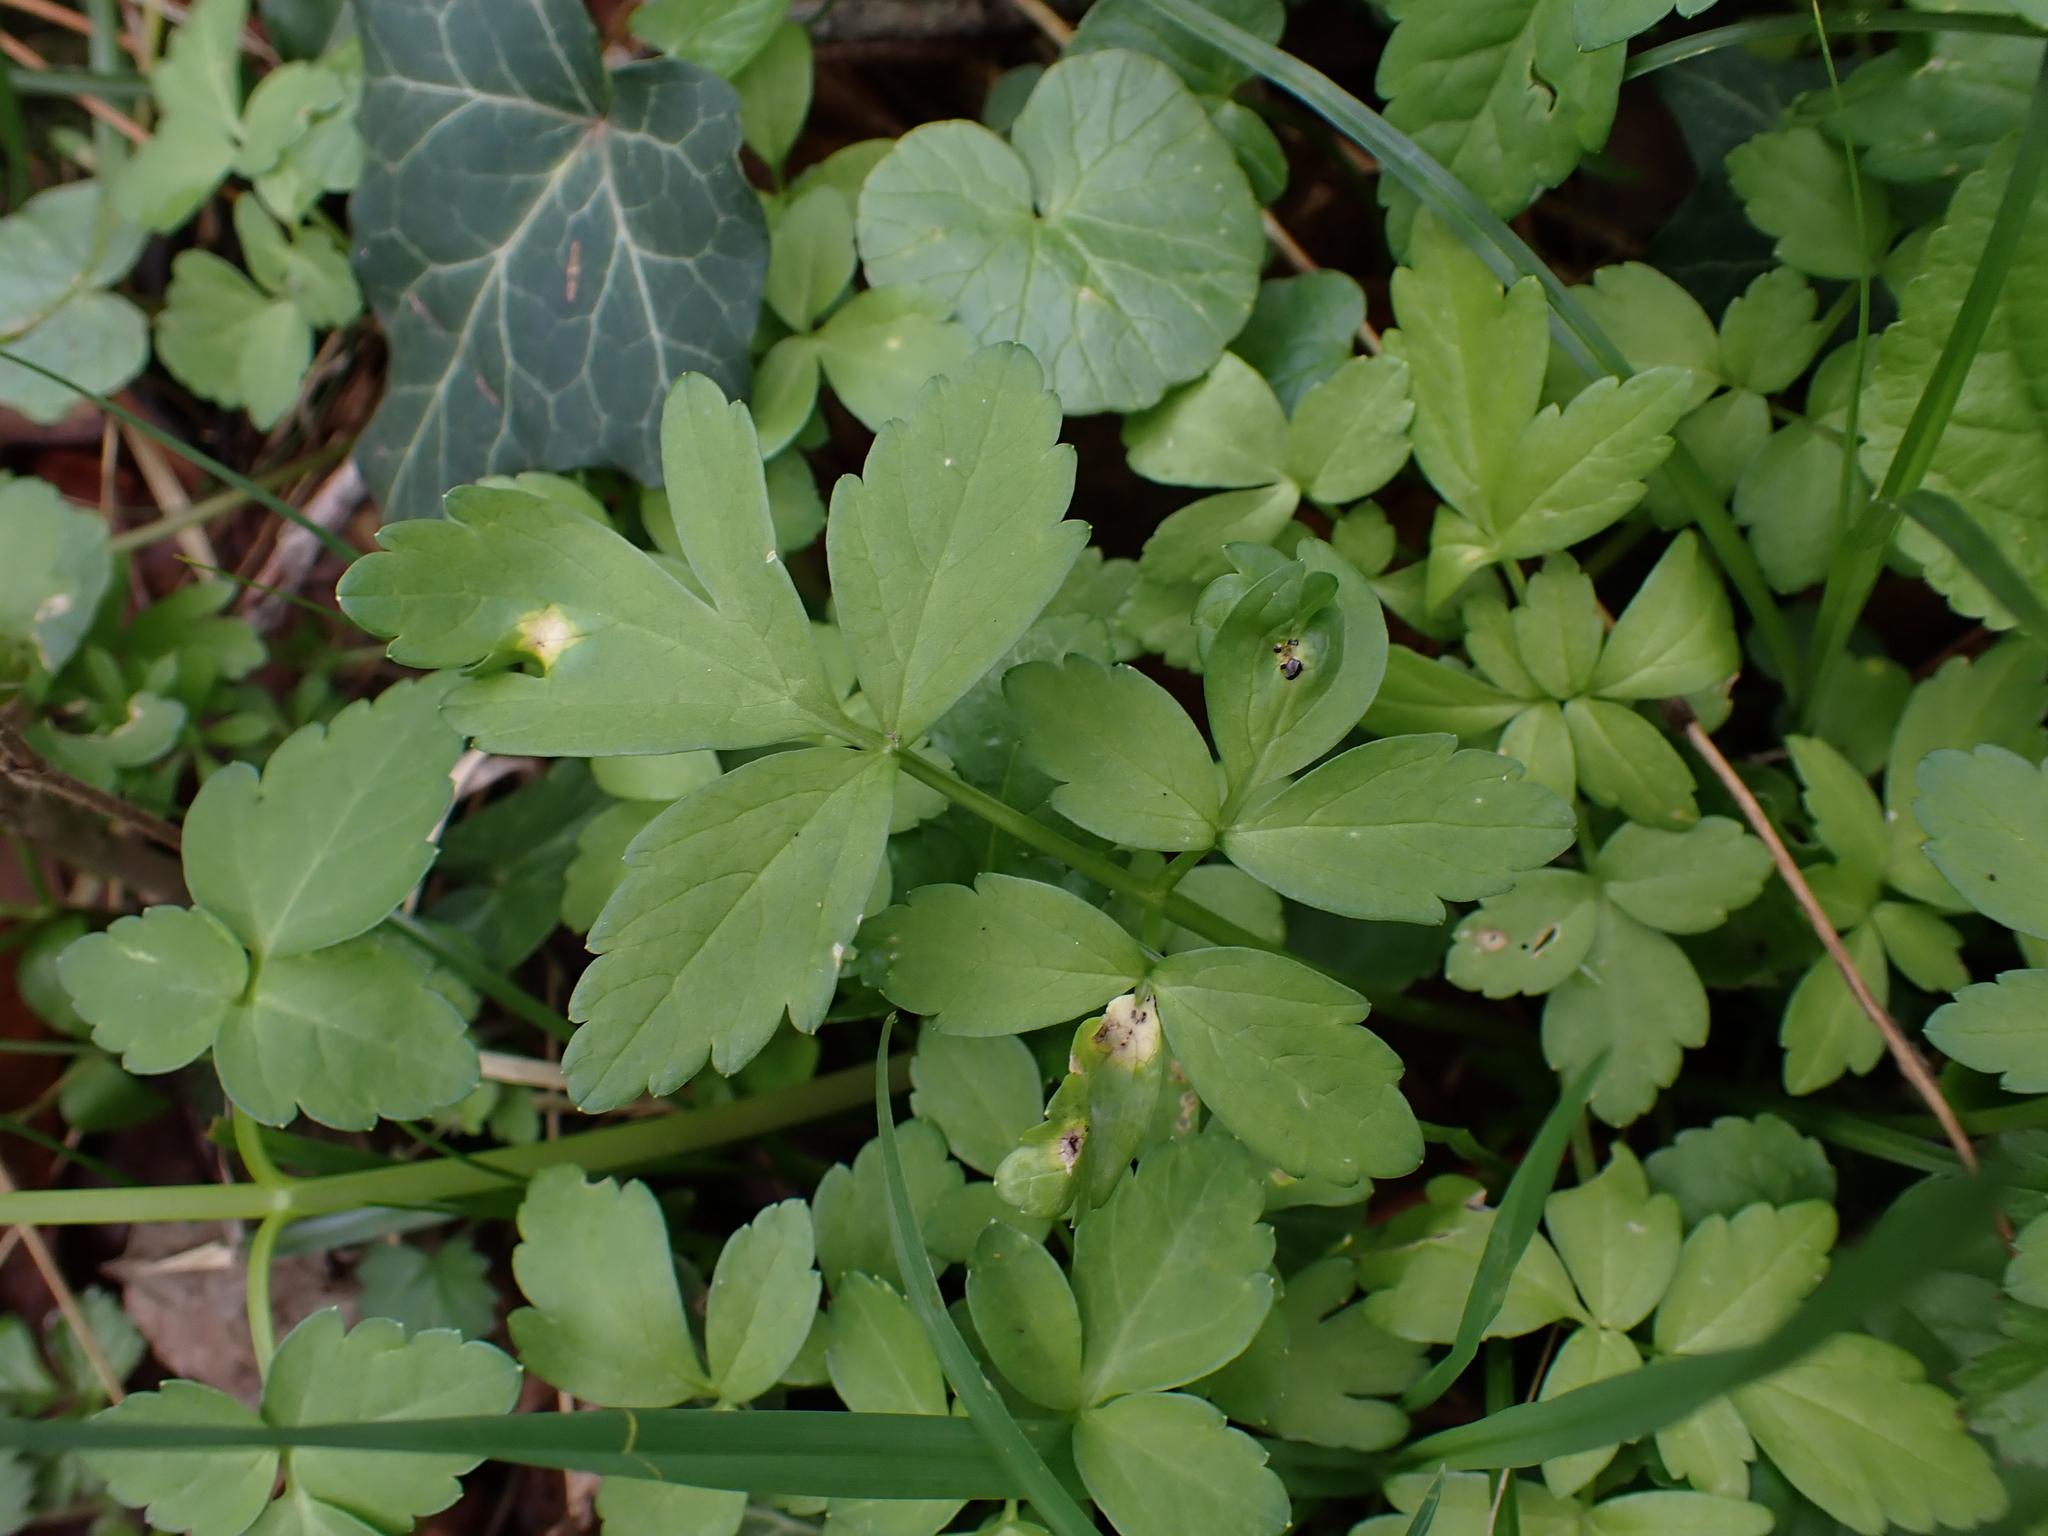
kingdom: Fungi
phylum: Basidiomycota
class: Pucciniomycetes
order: Pucciniales
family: Pucciniaceae
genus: Puccinia
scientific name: Puccinia smyrnii
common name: Alexanders rust
